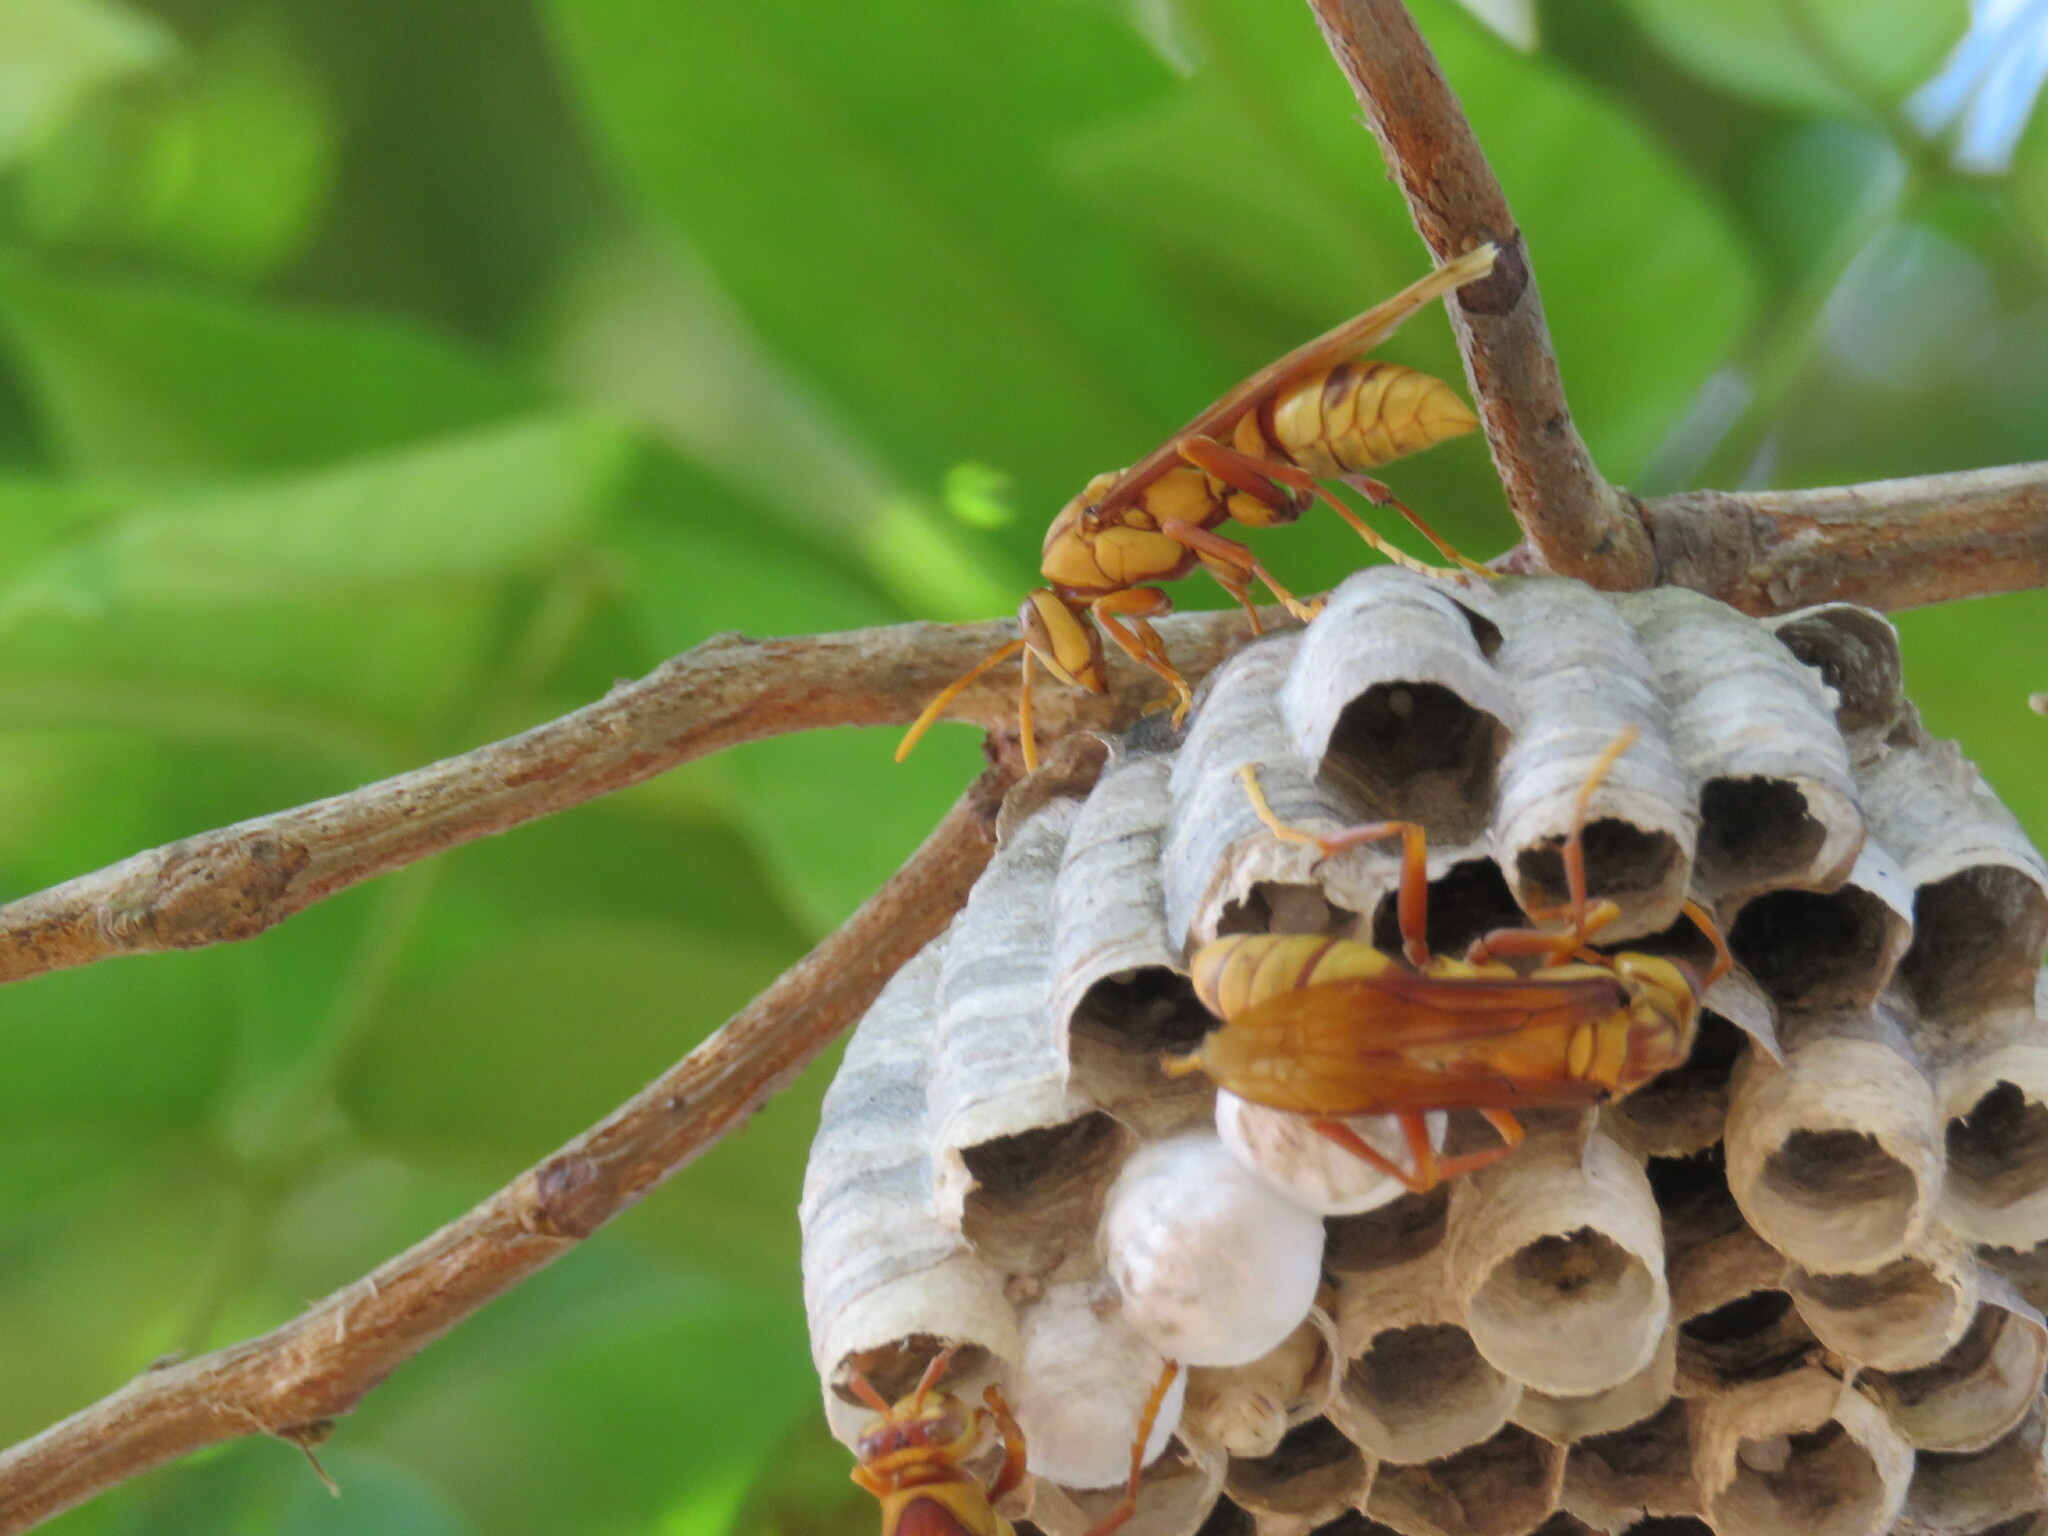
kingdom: Animalia
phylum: Arthropoda
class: Insecta
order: Hymenoptera
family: Eumenidae
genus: Polistes
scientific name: Polistes carnifex
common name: Paper wasp
